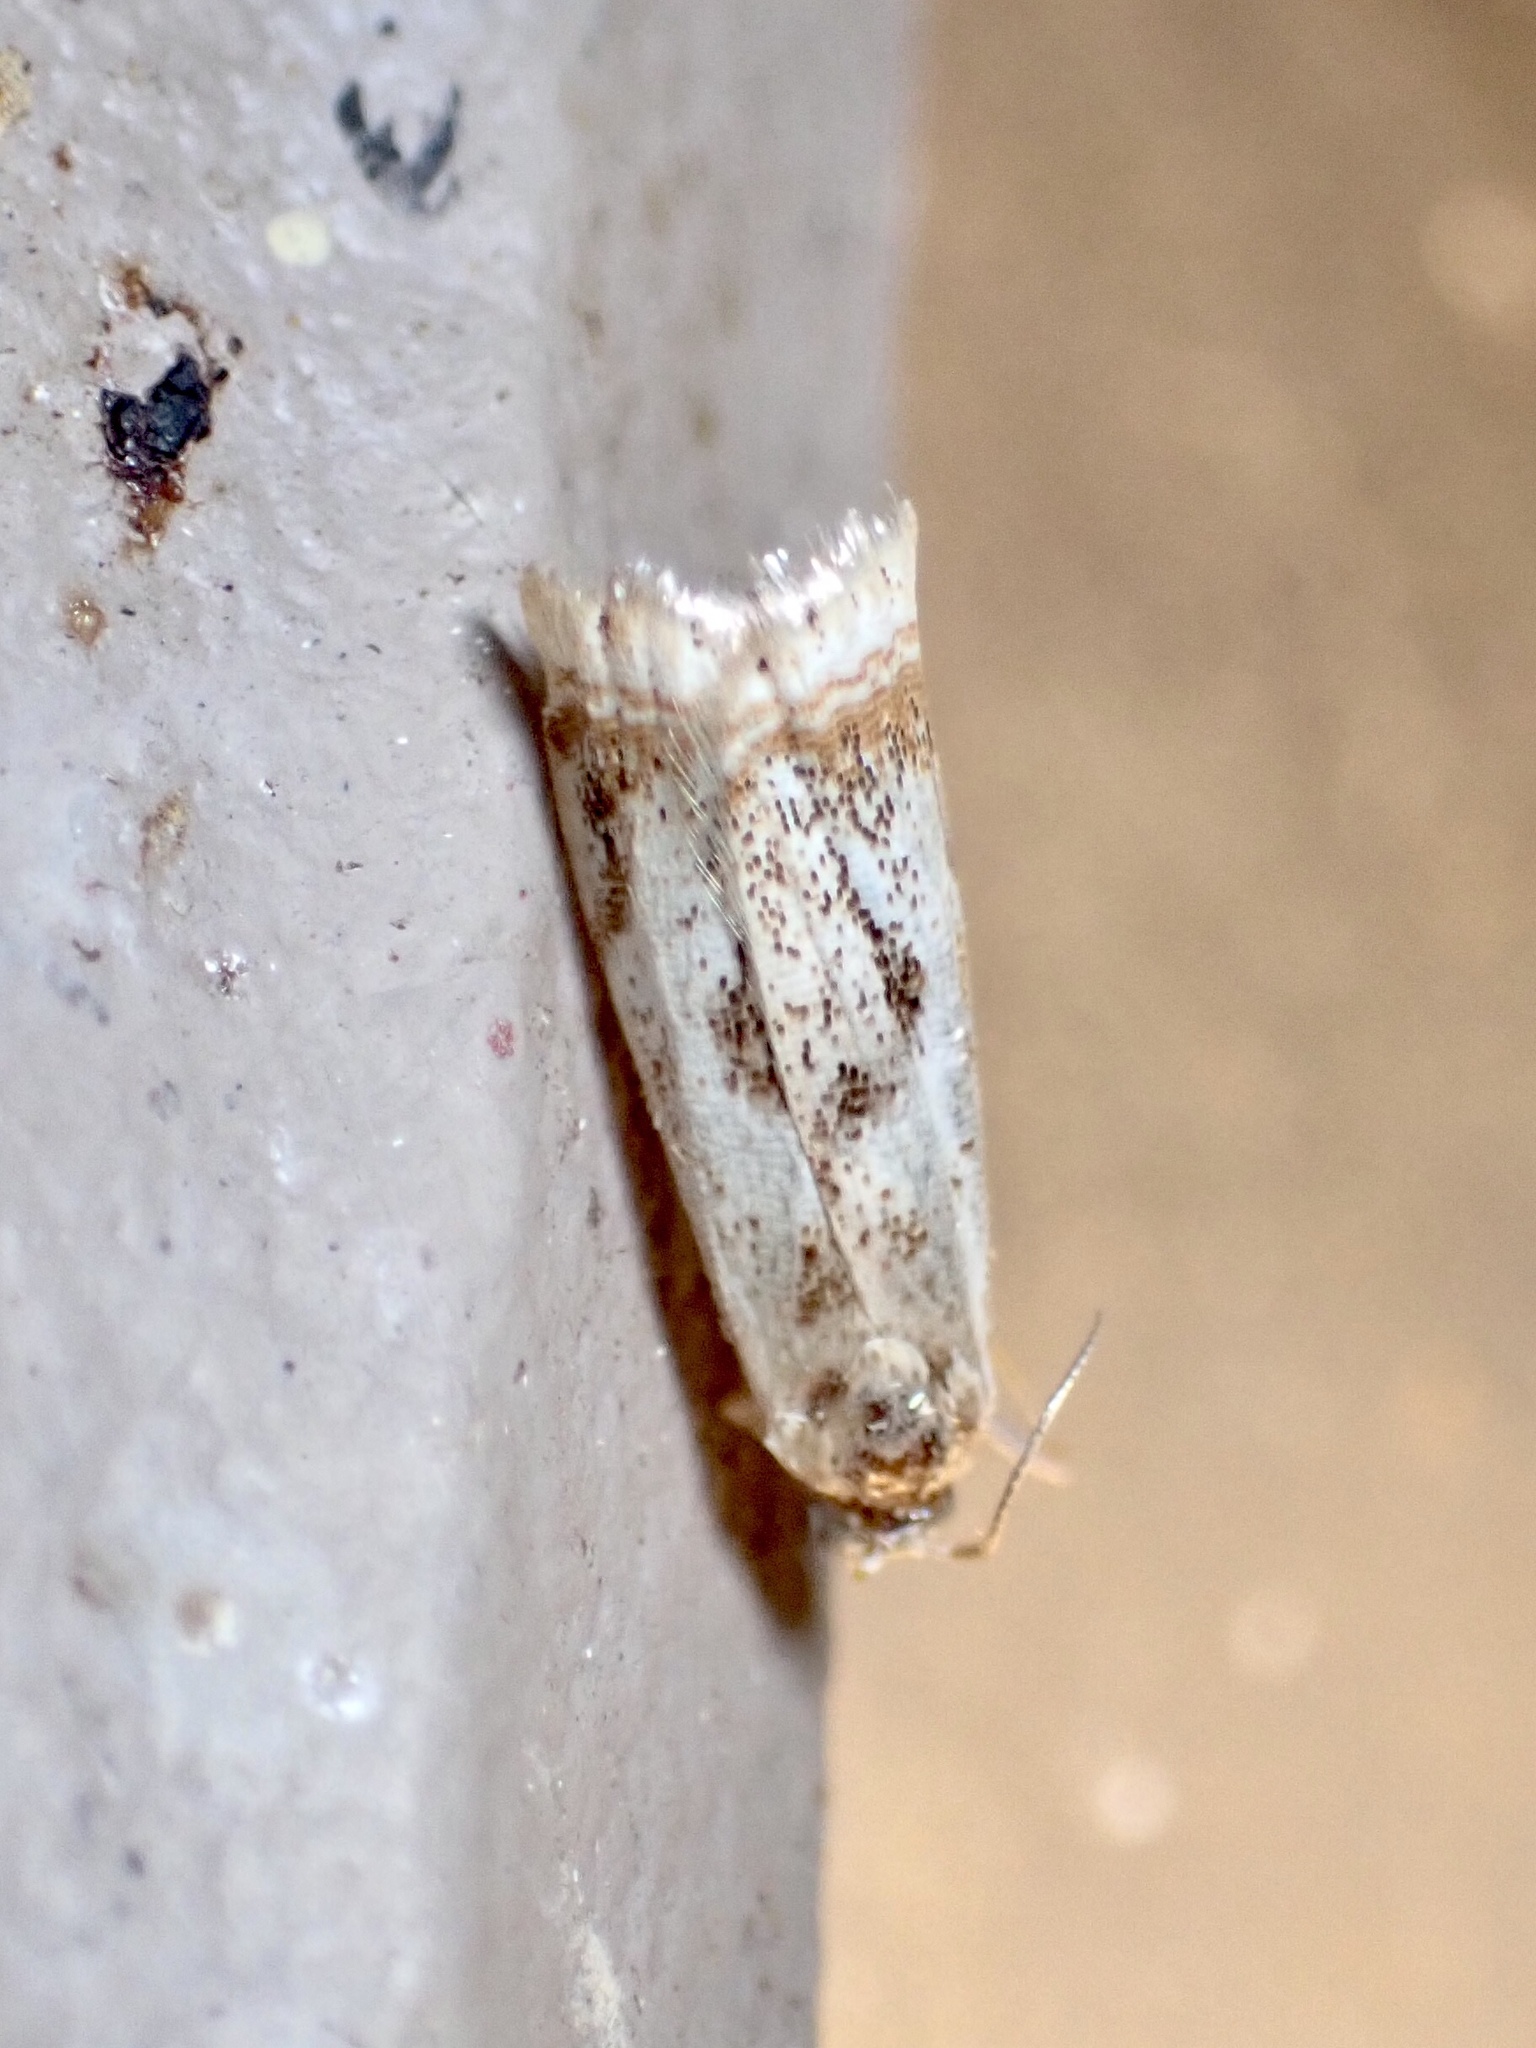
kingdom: Animalia
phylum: Arthropoda
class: Insecta
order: Lepidoptera
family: Crambidae
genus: Microcrambus
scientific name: Microcrambus elegans
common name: Elegant grass-veneer
